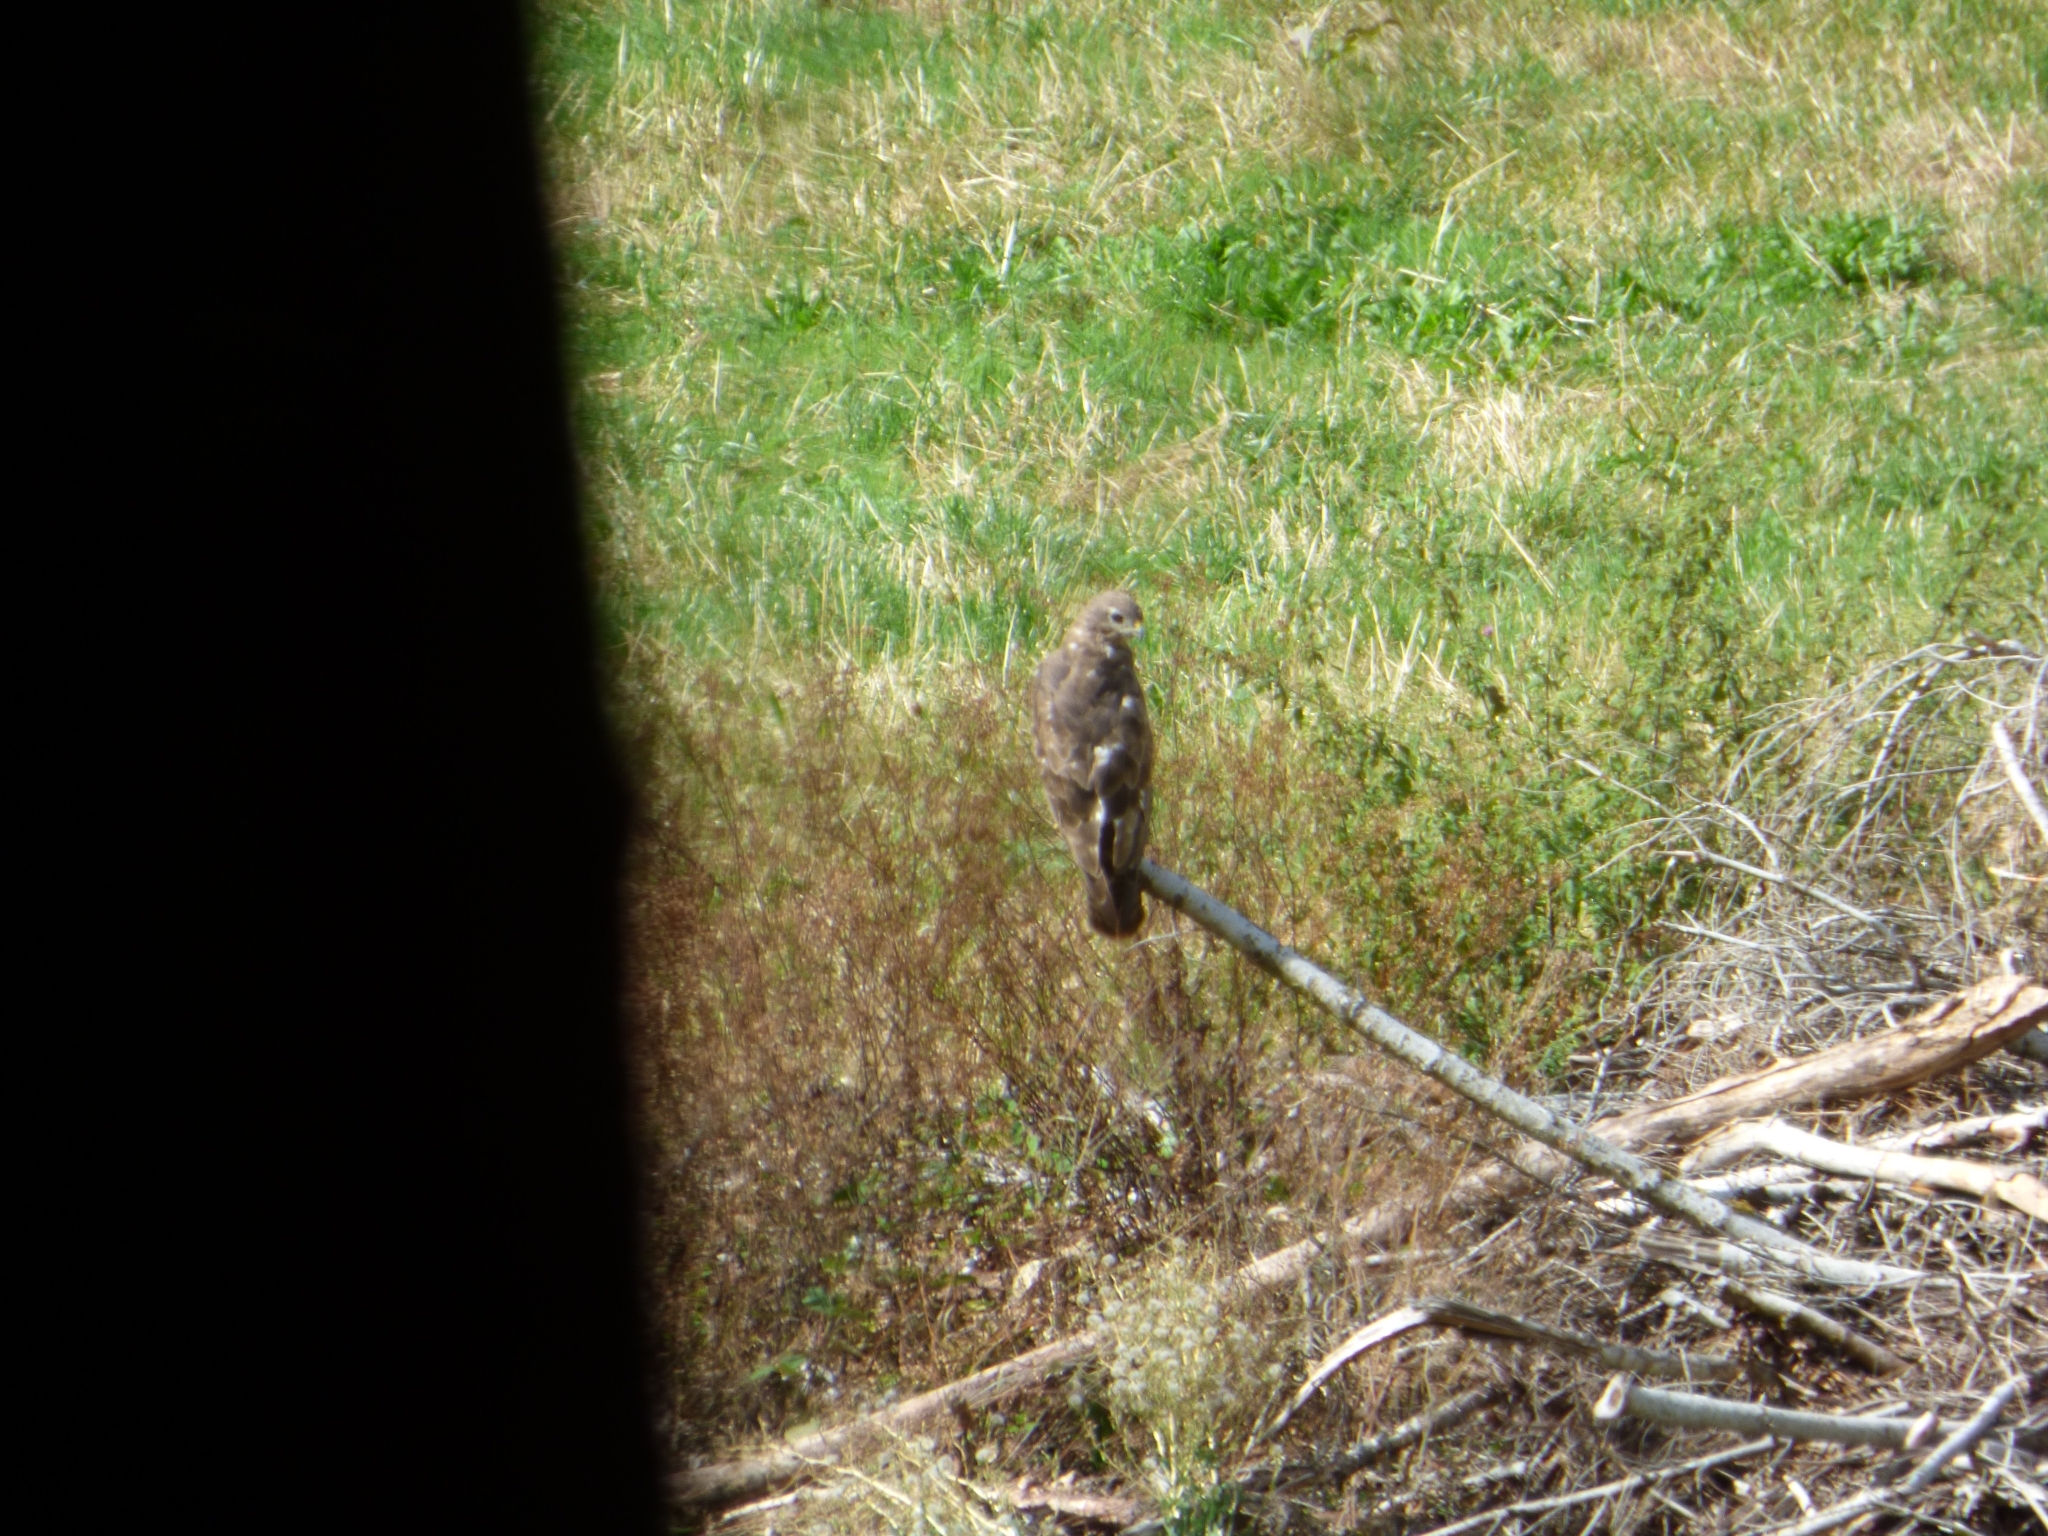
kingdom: Animalia
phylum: Chordata
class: Aves
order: Accipitriformes
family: Accipitridae
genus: Buteo
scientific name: Buteo buteo
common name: Common buzzard
